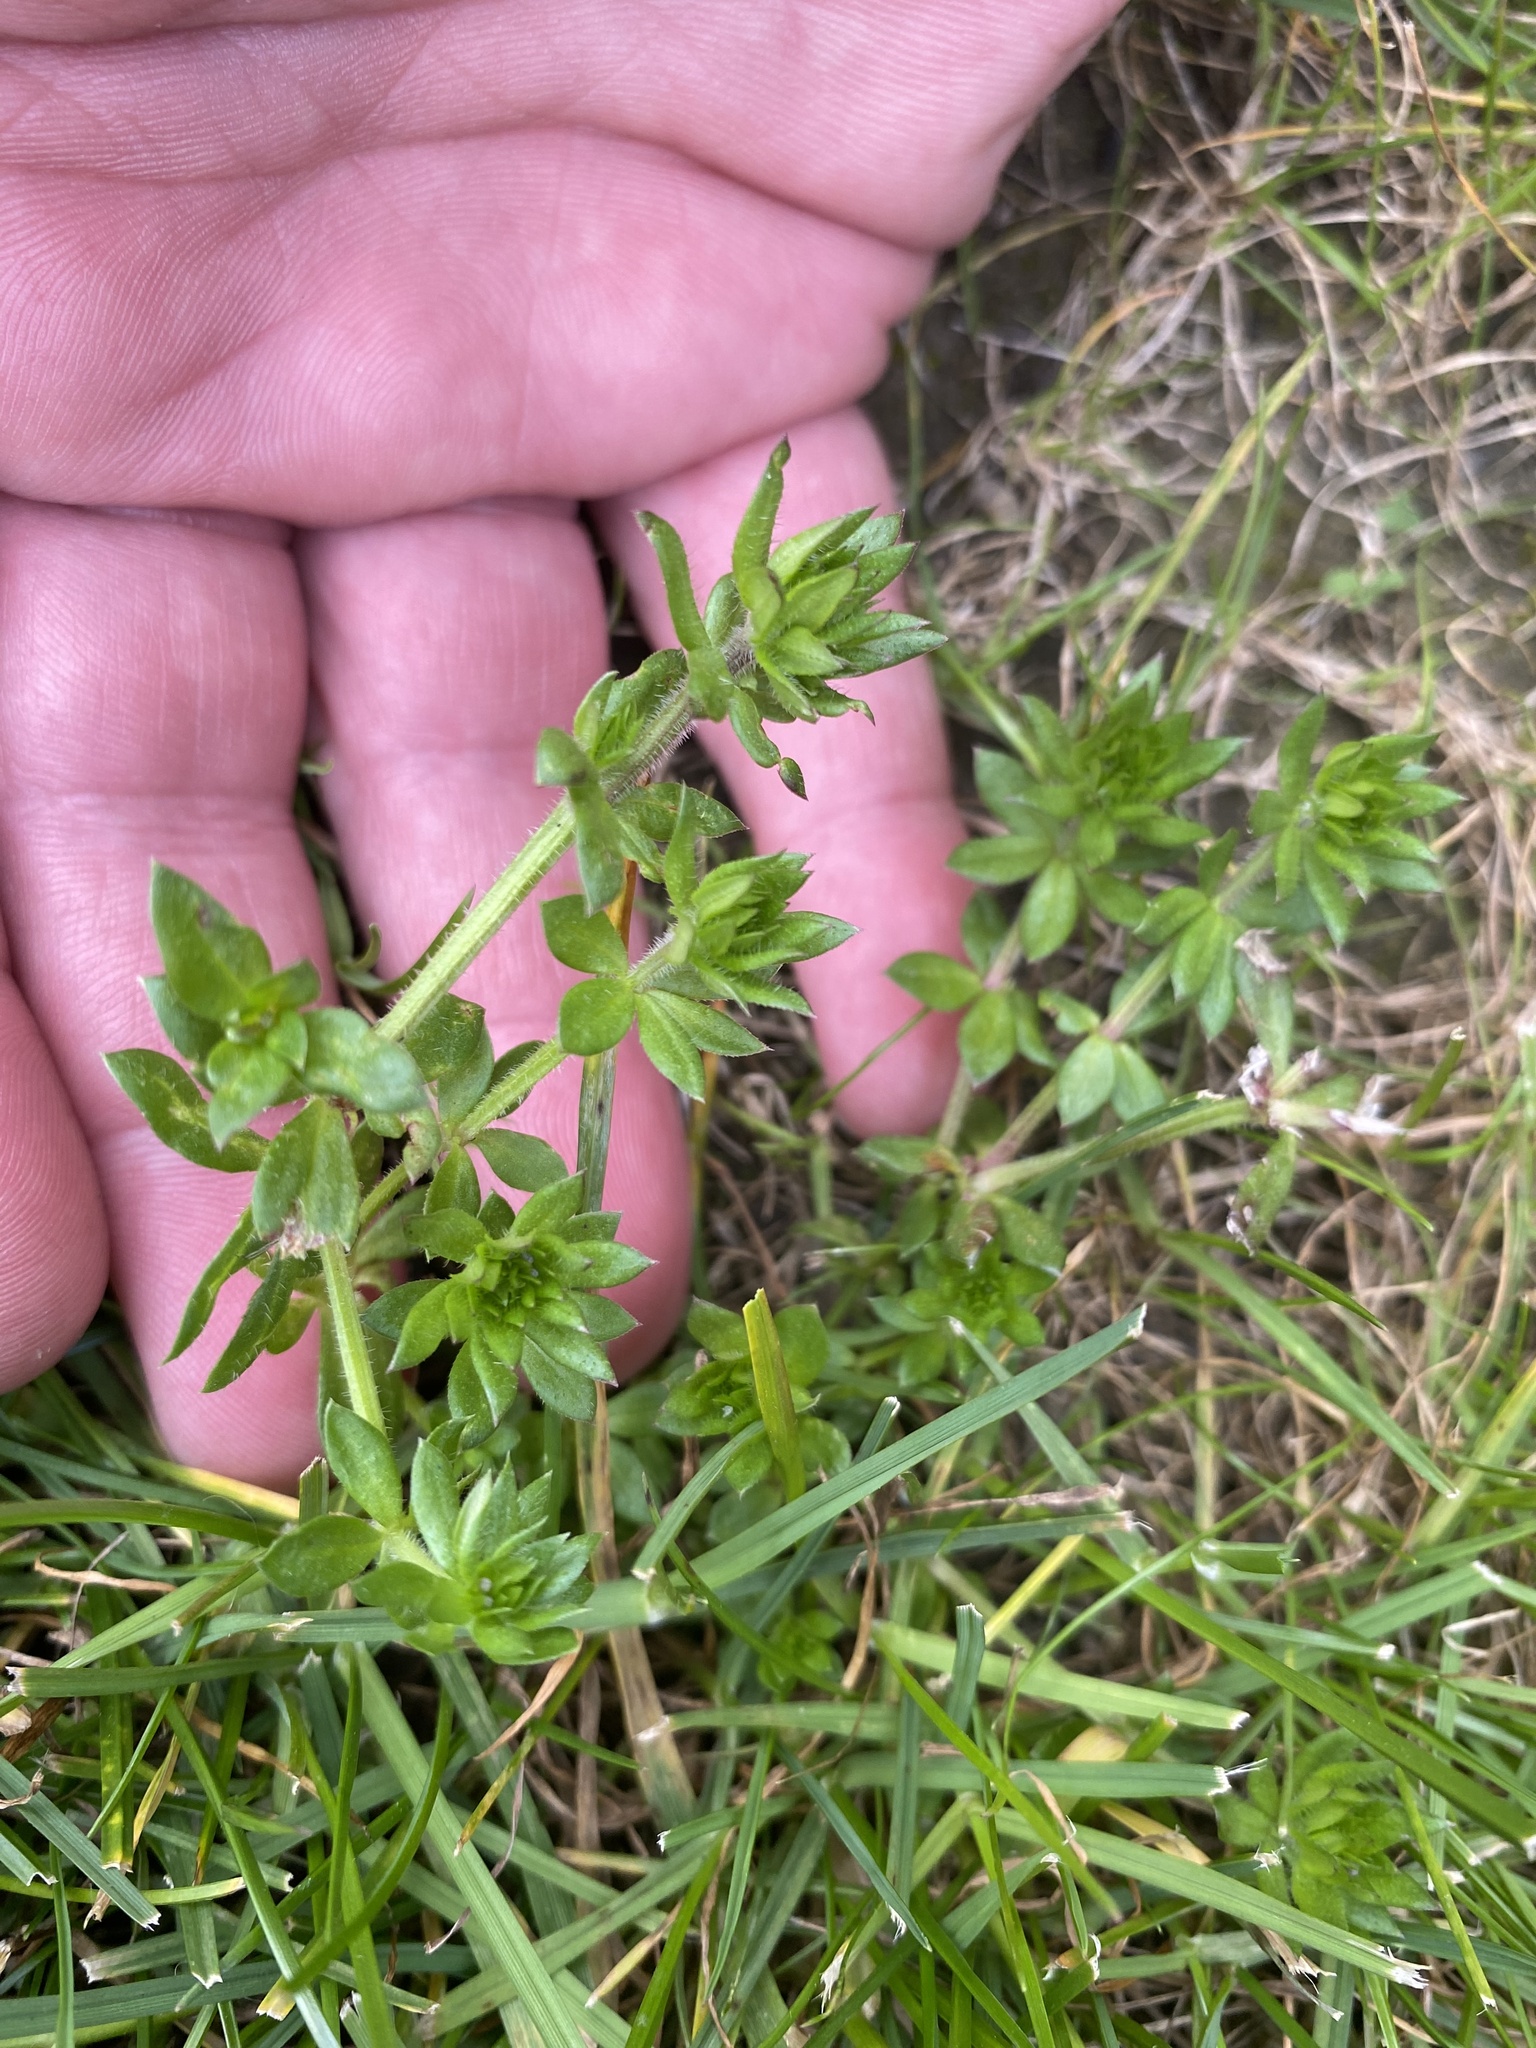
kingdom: Plantae
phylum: Tracheophyta
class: Magnoliopsida
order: Gentianales
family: Rubiaceae
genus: Sherardia
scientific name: Sherardia arvensis
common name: Field madder
